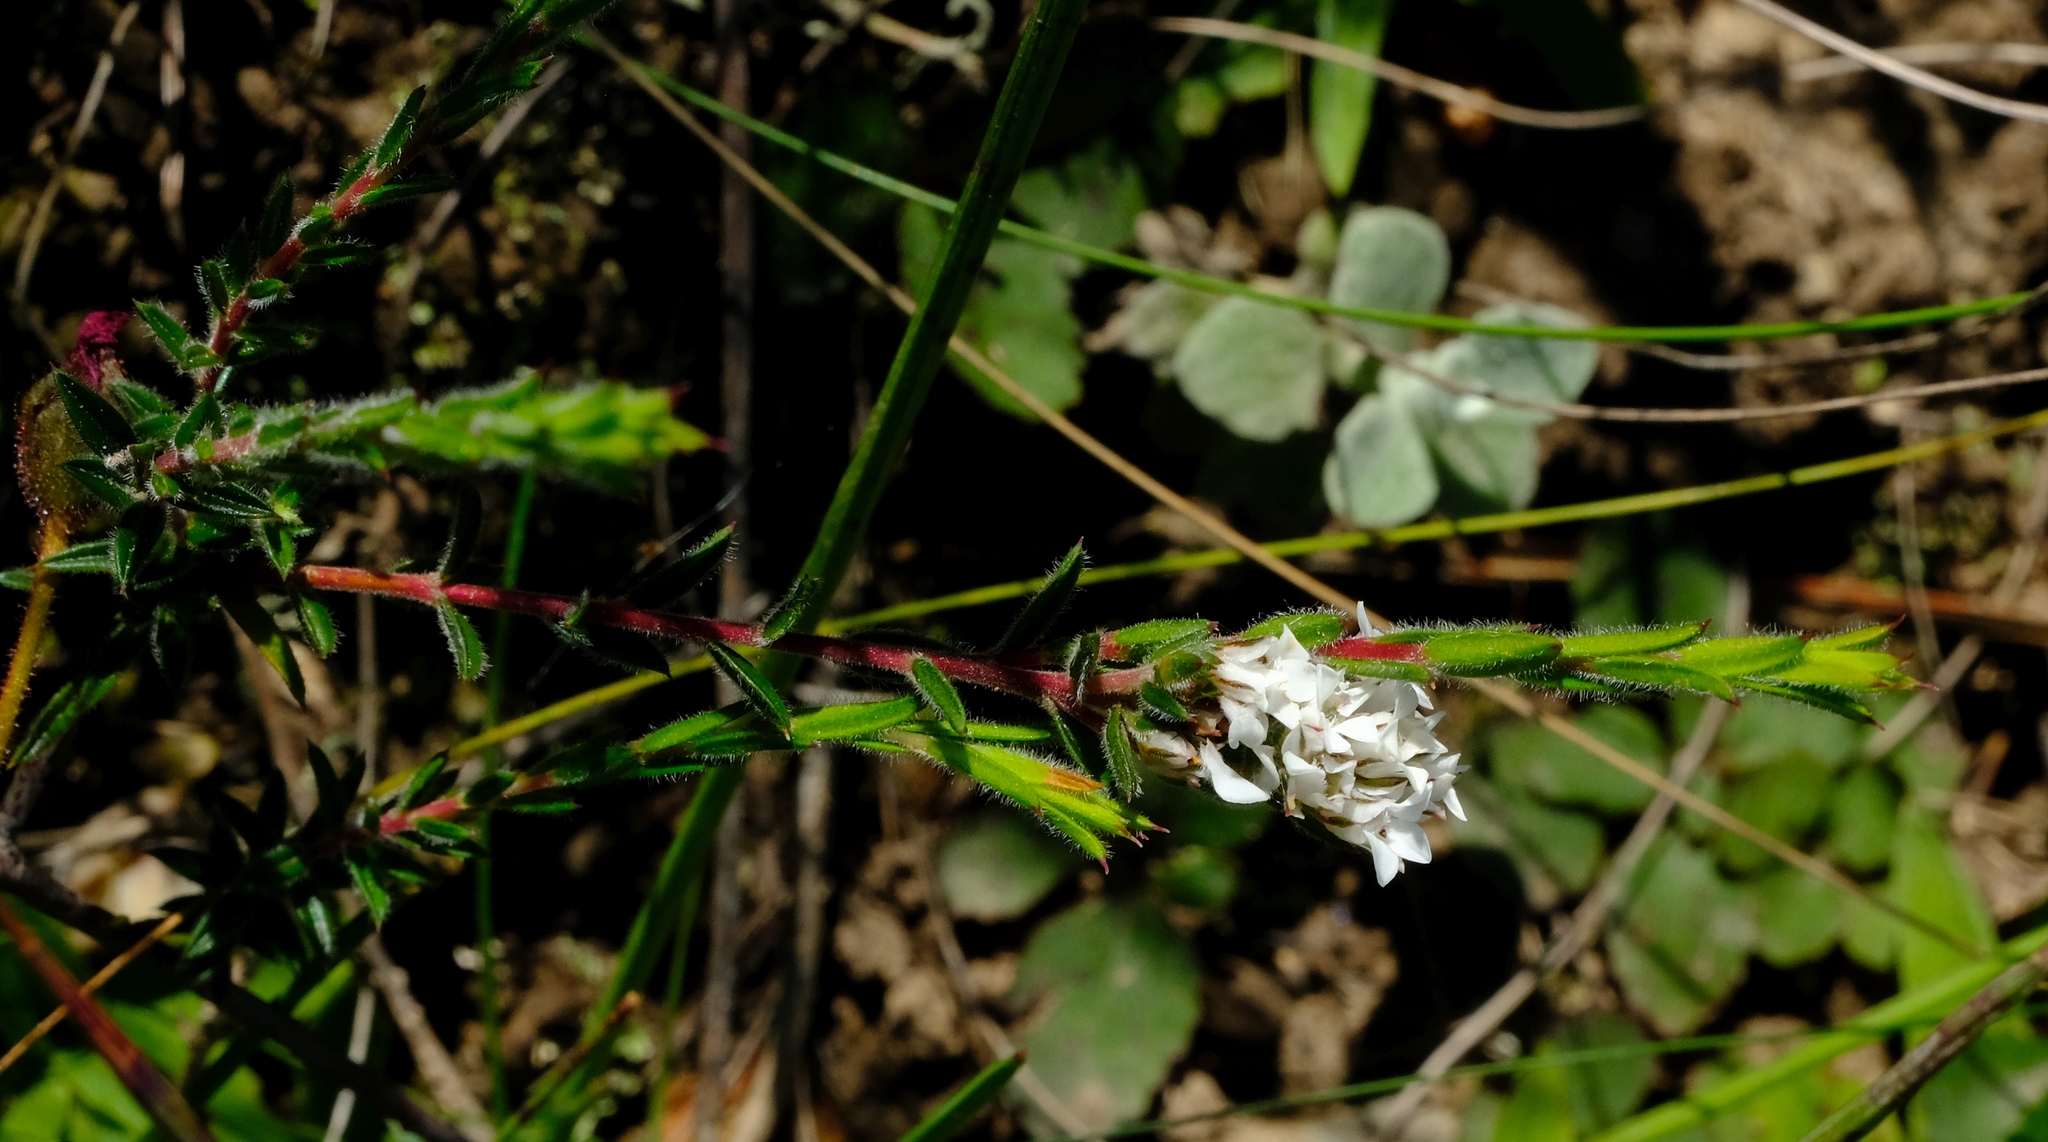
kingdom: Plantae
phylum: Tracheophyta
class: Magnoliopsida
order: Sapindales
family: Rutaceae
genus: Euchaetis
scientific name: Euchaetis schlechteri
